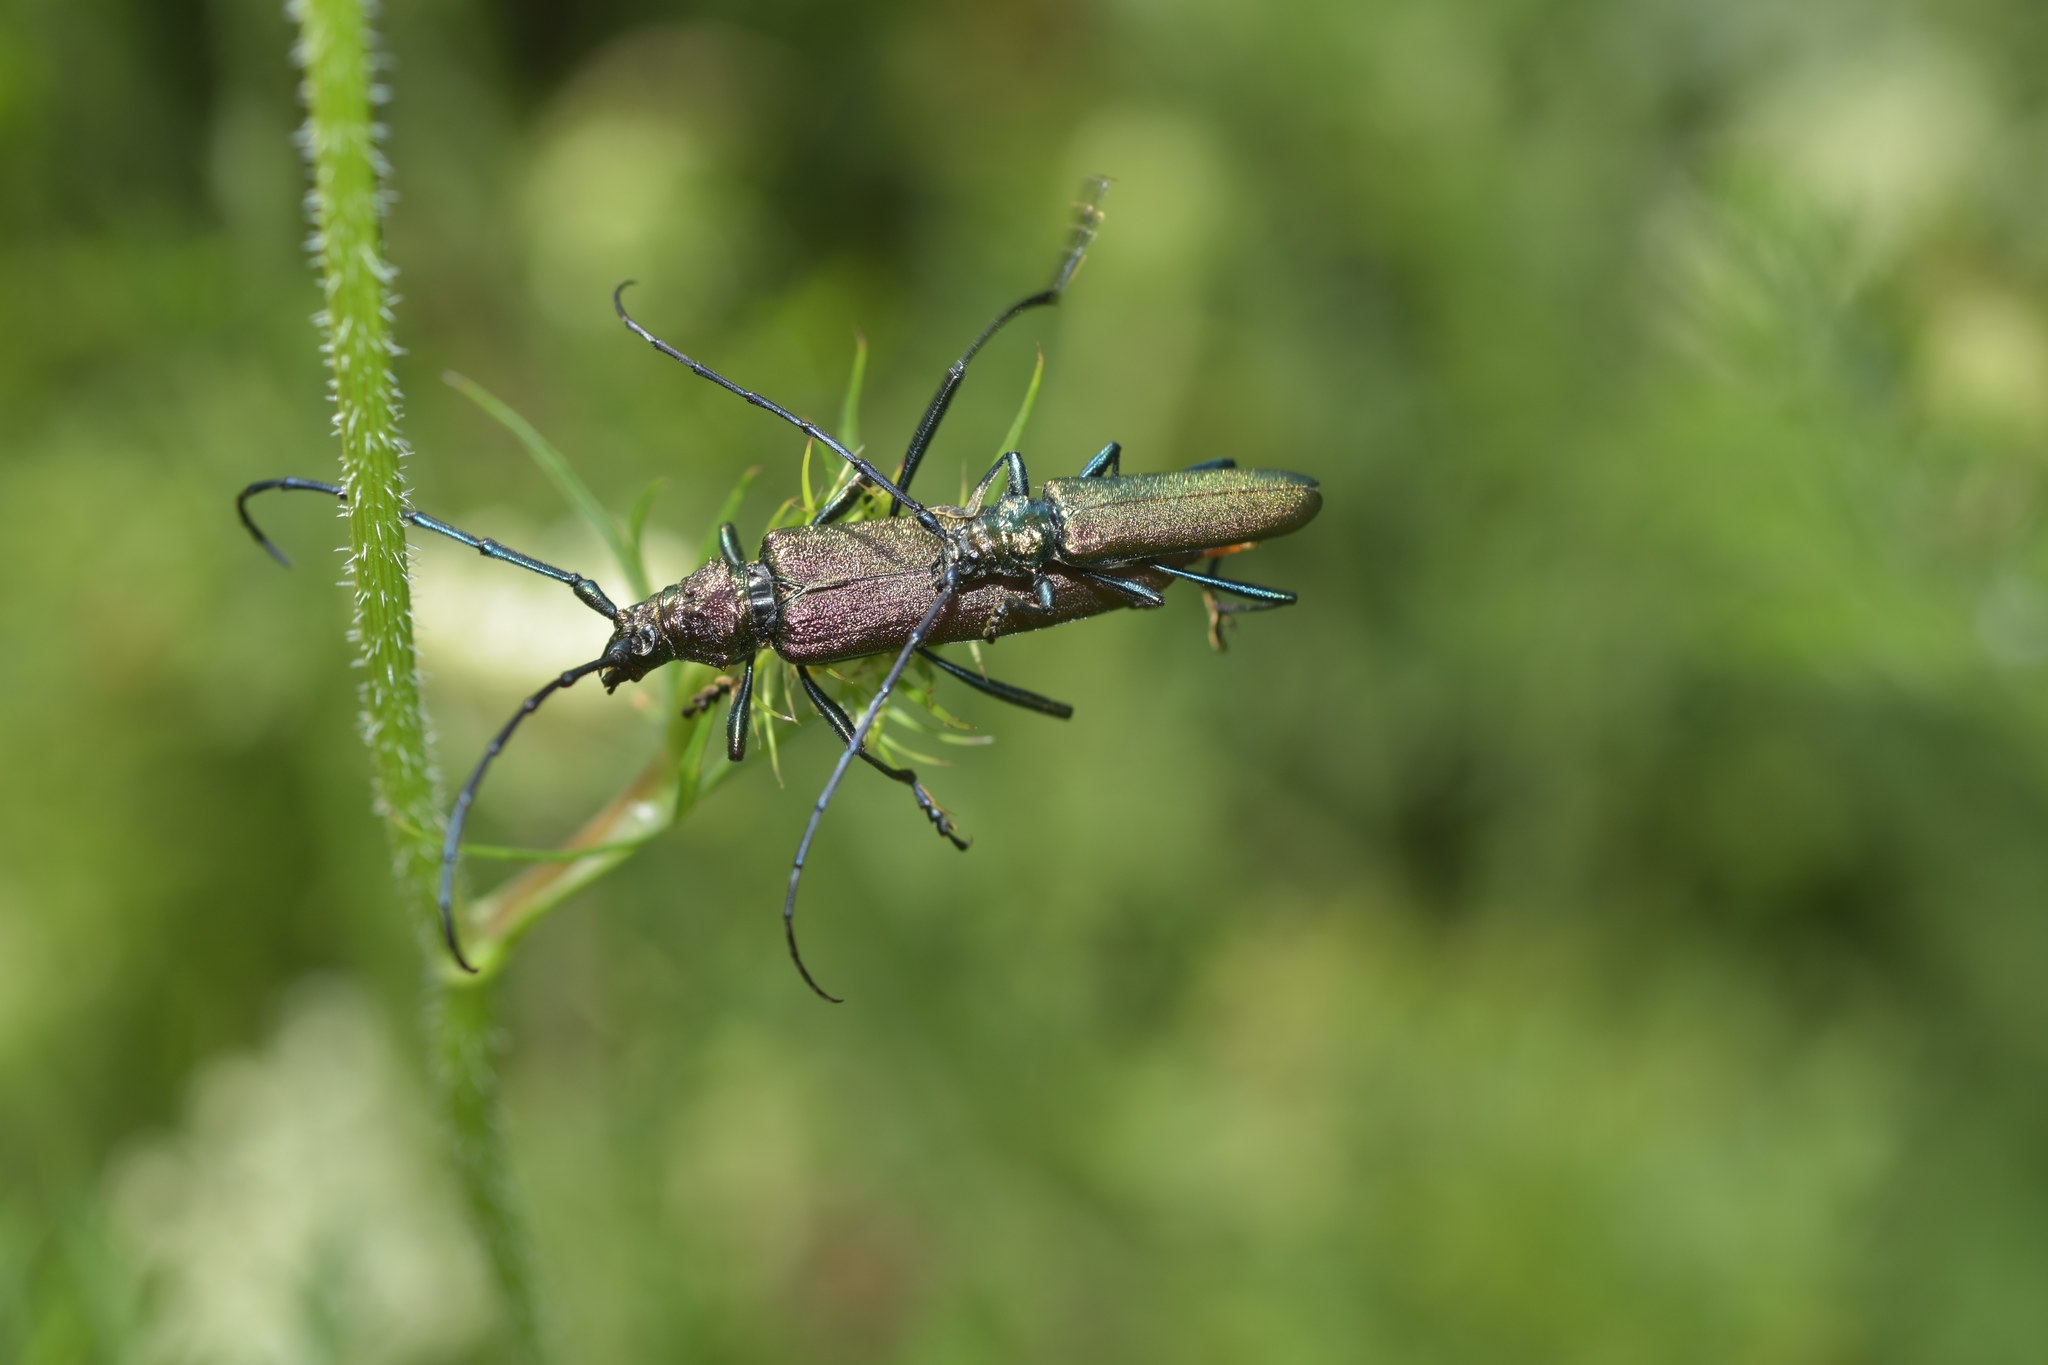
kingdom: Animalia
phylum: Arthropoda
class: Insecta
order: Coleoptera
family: Cerambycidae
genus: Aromia
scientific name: Aromia moschata
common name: Musk beetle
